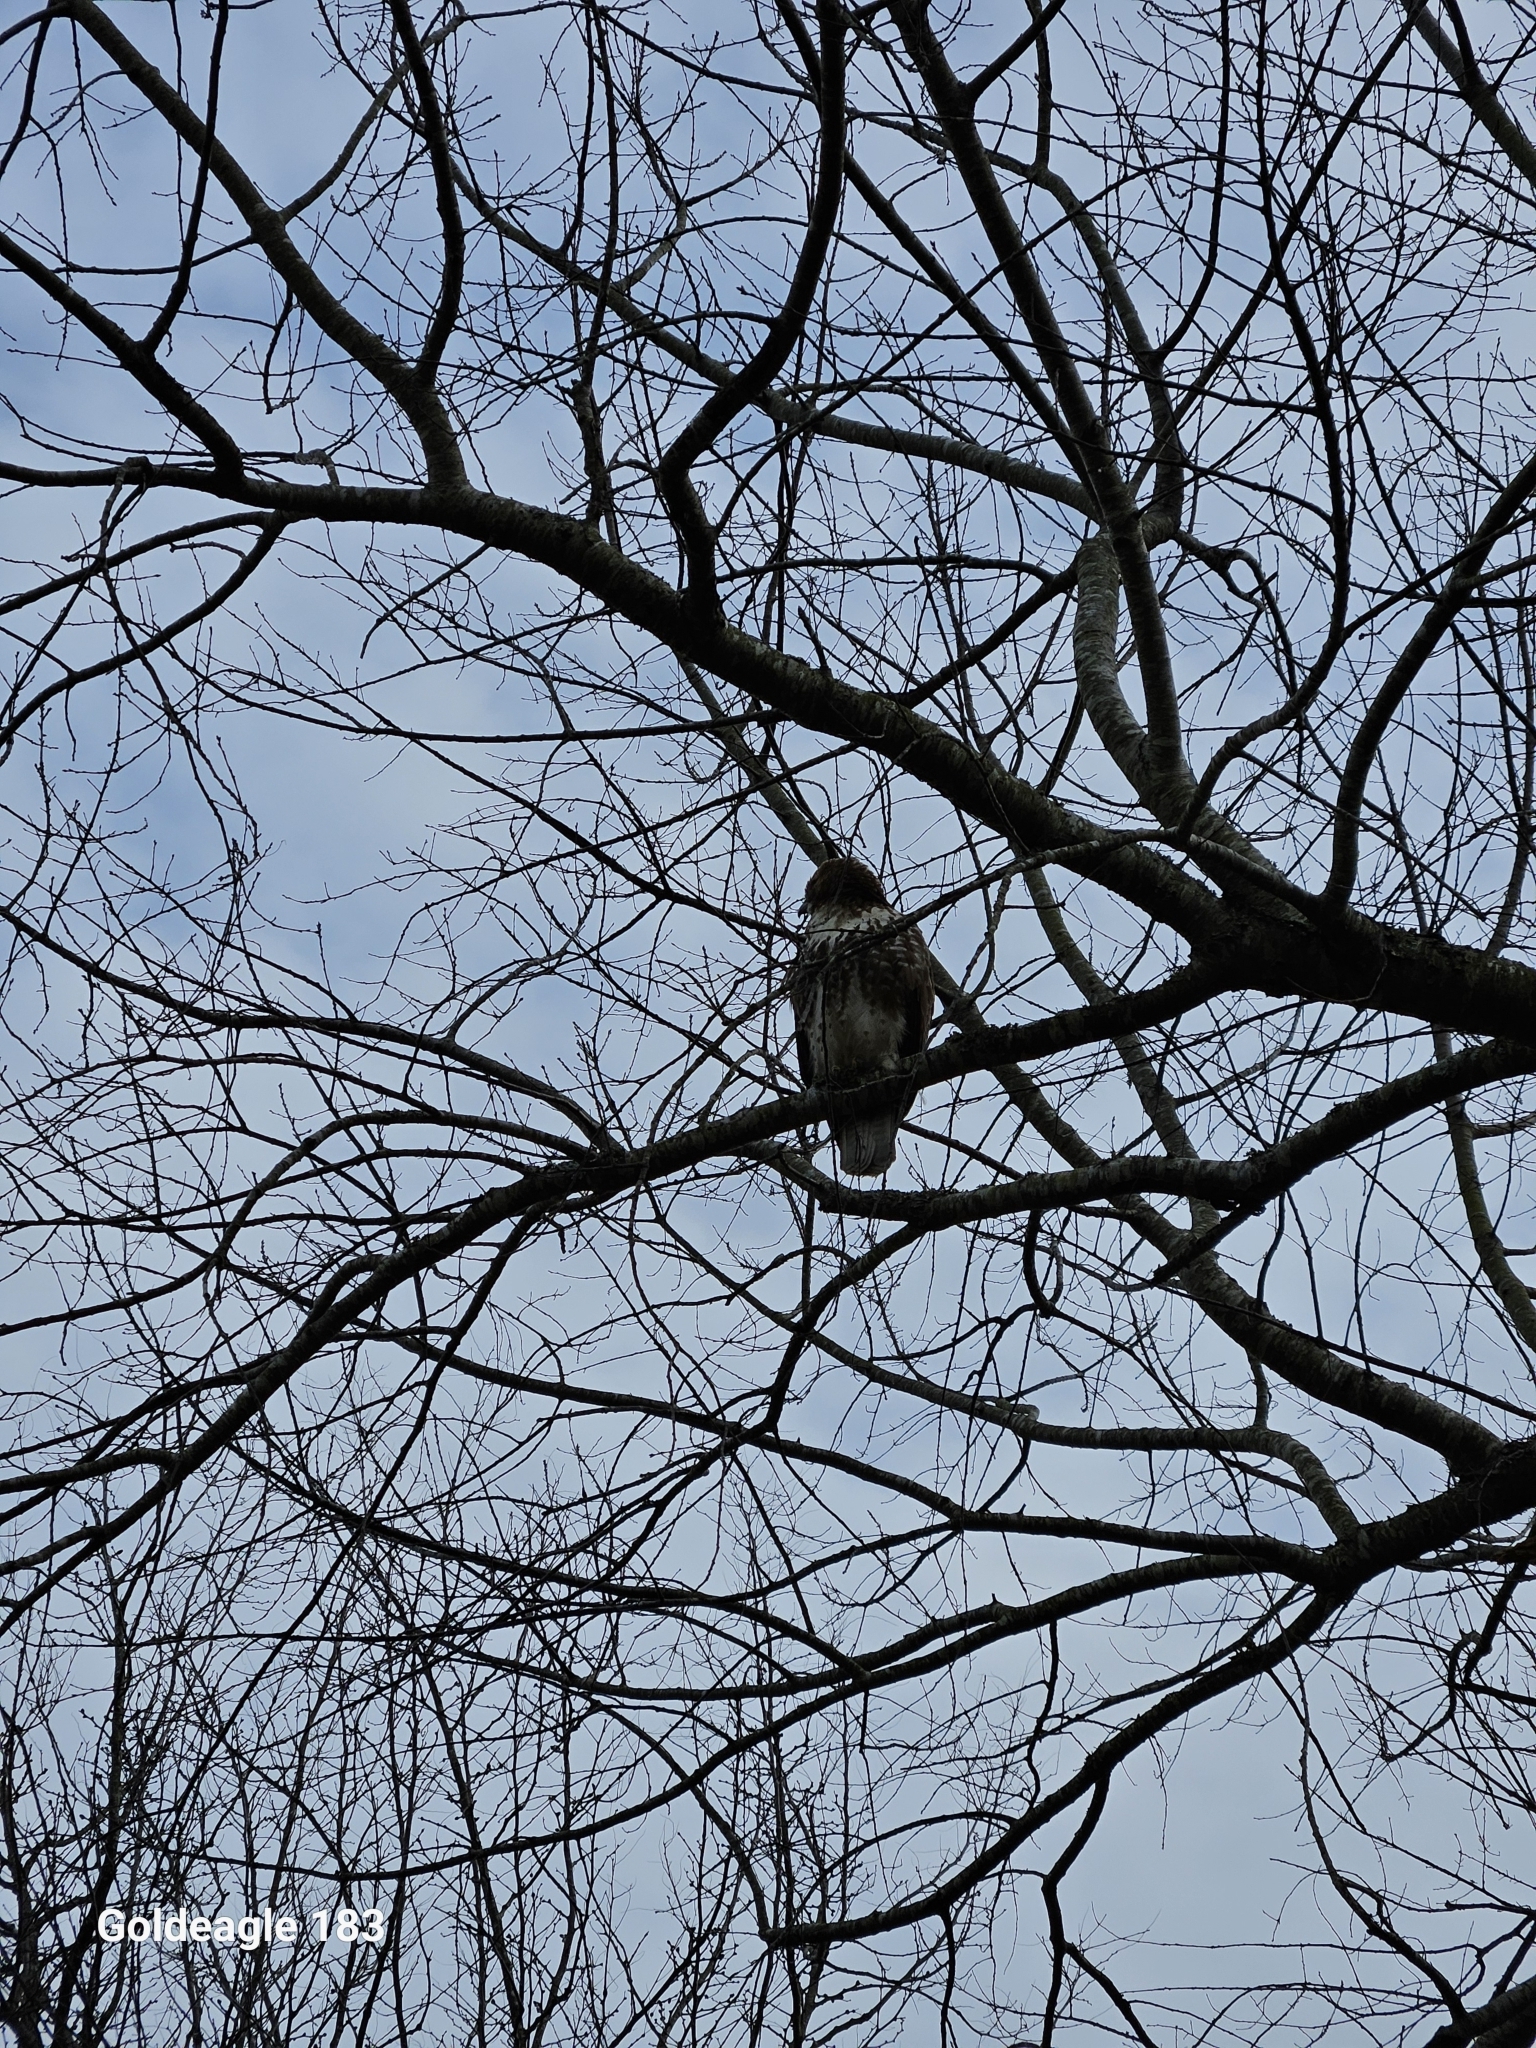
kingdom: Animalia
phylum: Chordata
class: Aves
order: Accipitriformes
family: Accipitridae
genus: Buteo
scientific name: Buteo jamaicensis
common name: Red-tailed hawk
